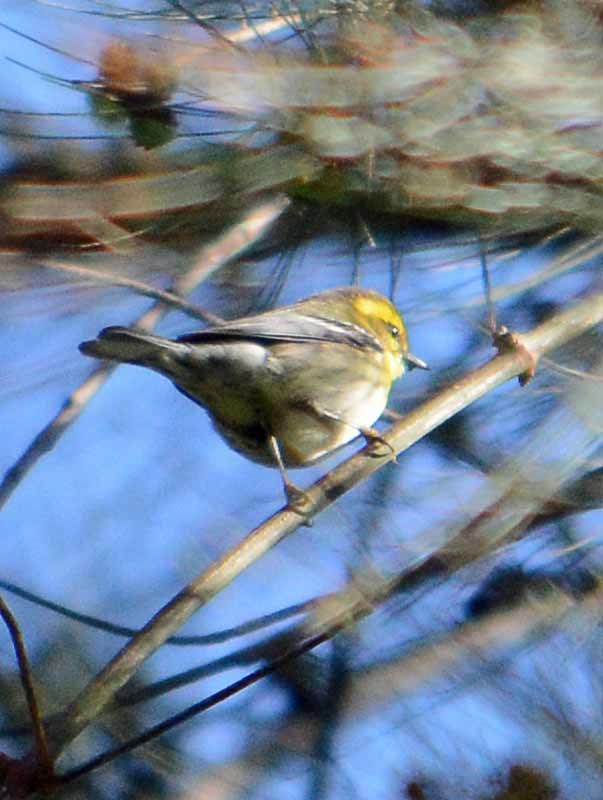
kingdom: Animalia
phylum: Chordata
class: Aves
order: Passeriformes
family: Parulidae
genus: Setophaga
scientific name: Setophaga townsendi
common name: Townsend's warbler
